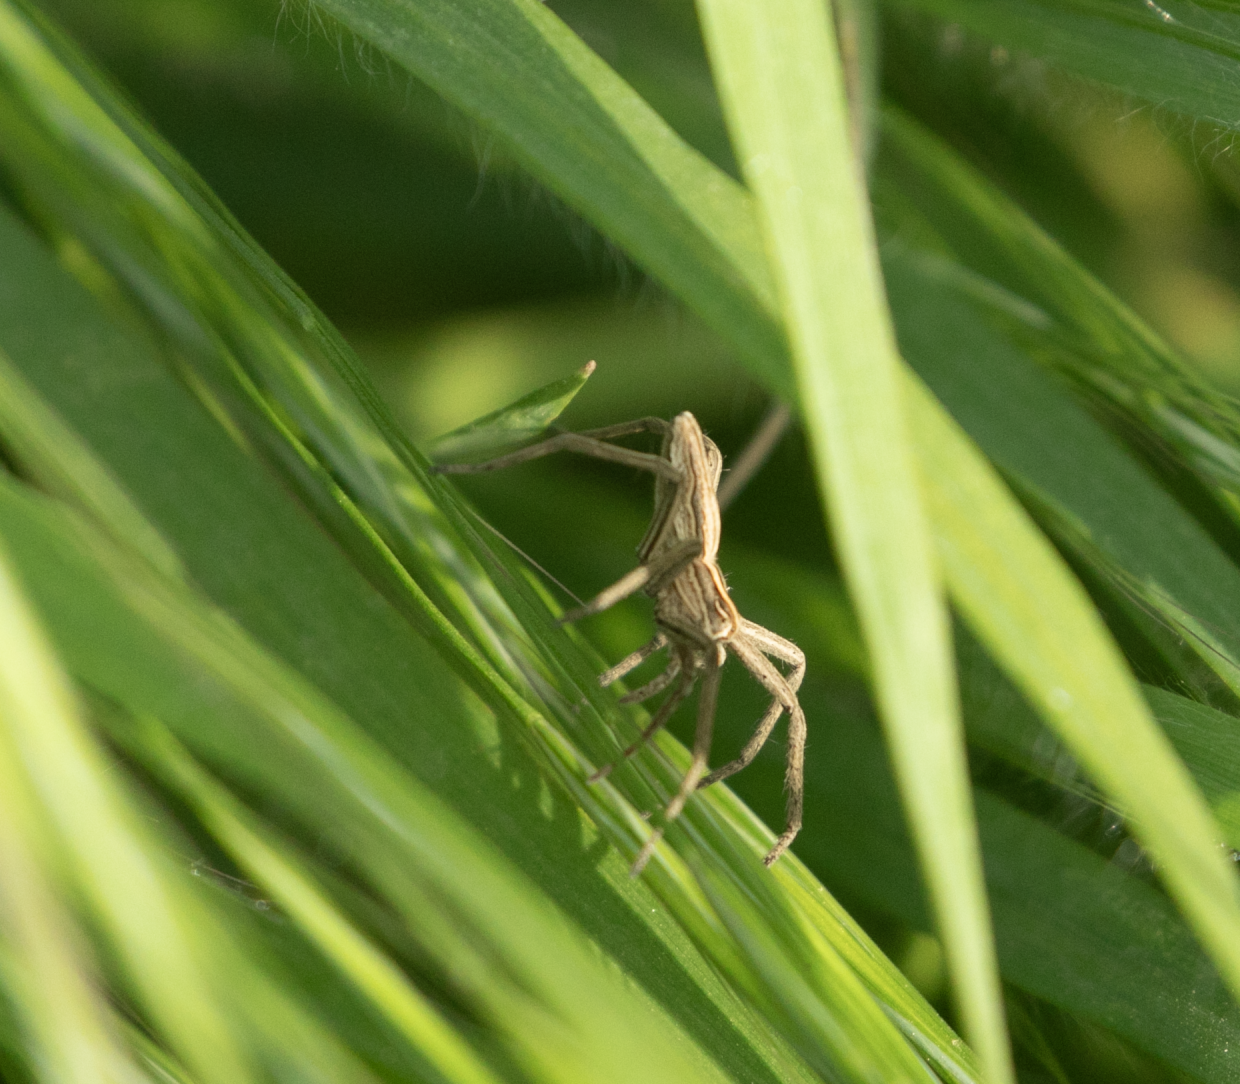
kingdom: Animalia
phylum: Arthropoda
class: Arachnida
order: Araneae
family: Pisauridae
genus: Pisaura
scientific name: Pisaura mirabilis
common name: Tent spider
